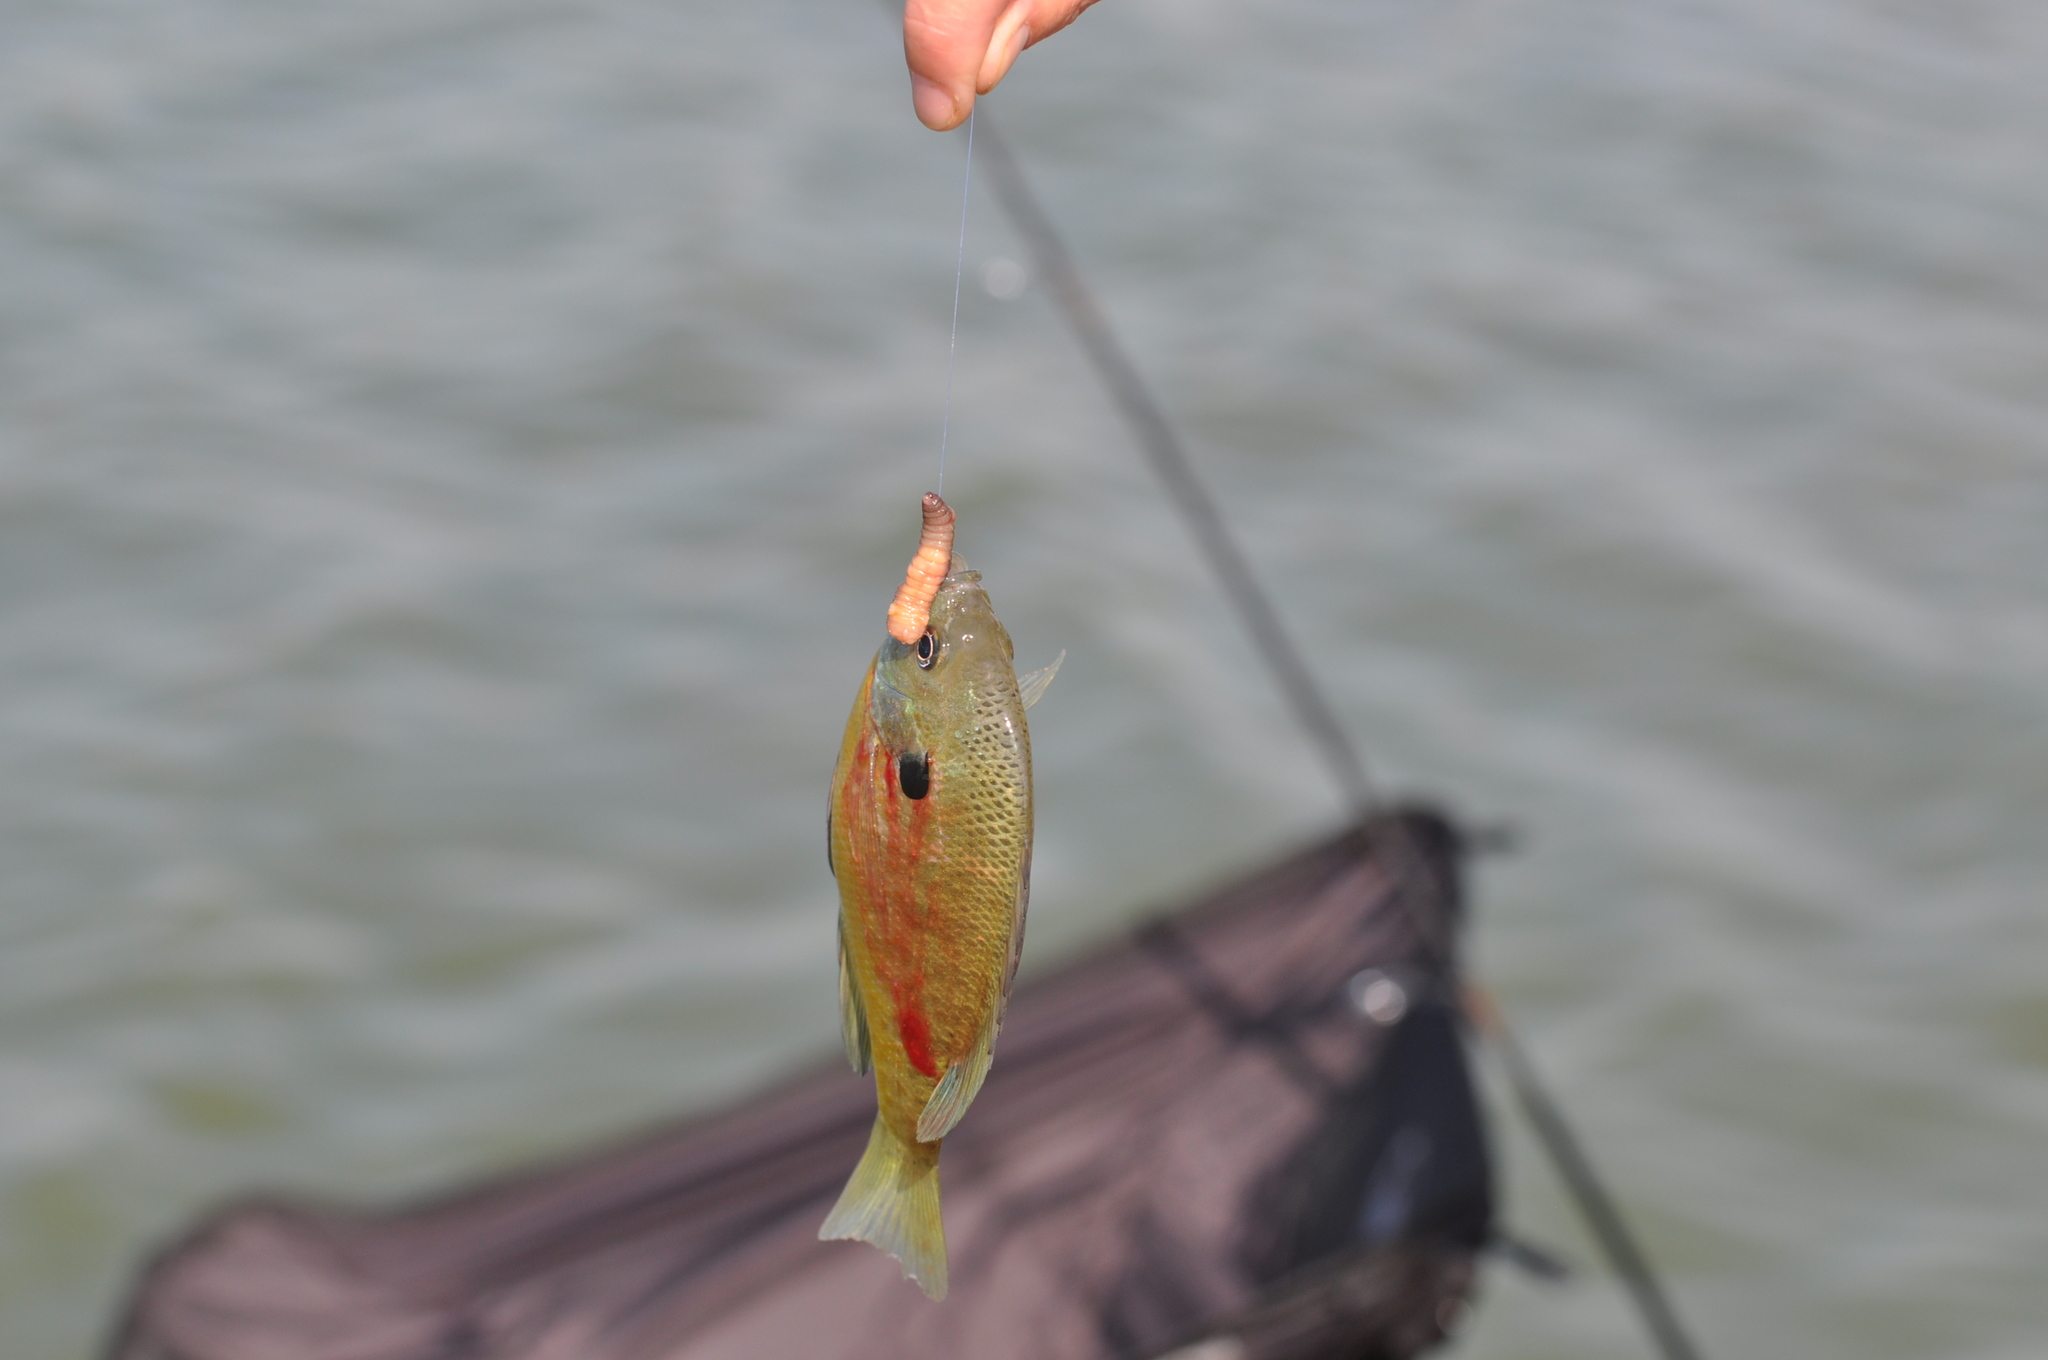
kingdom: Animalia
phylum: Chordata
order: Perciformes
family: Centrarchidae
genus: Lepomis
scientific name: Lepomis macrochirus
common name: Bluegill
